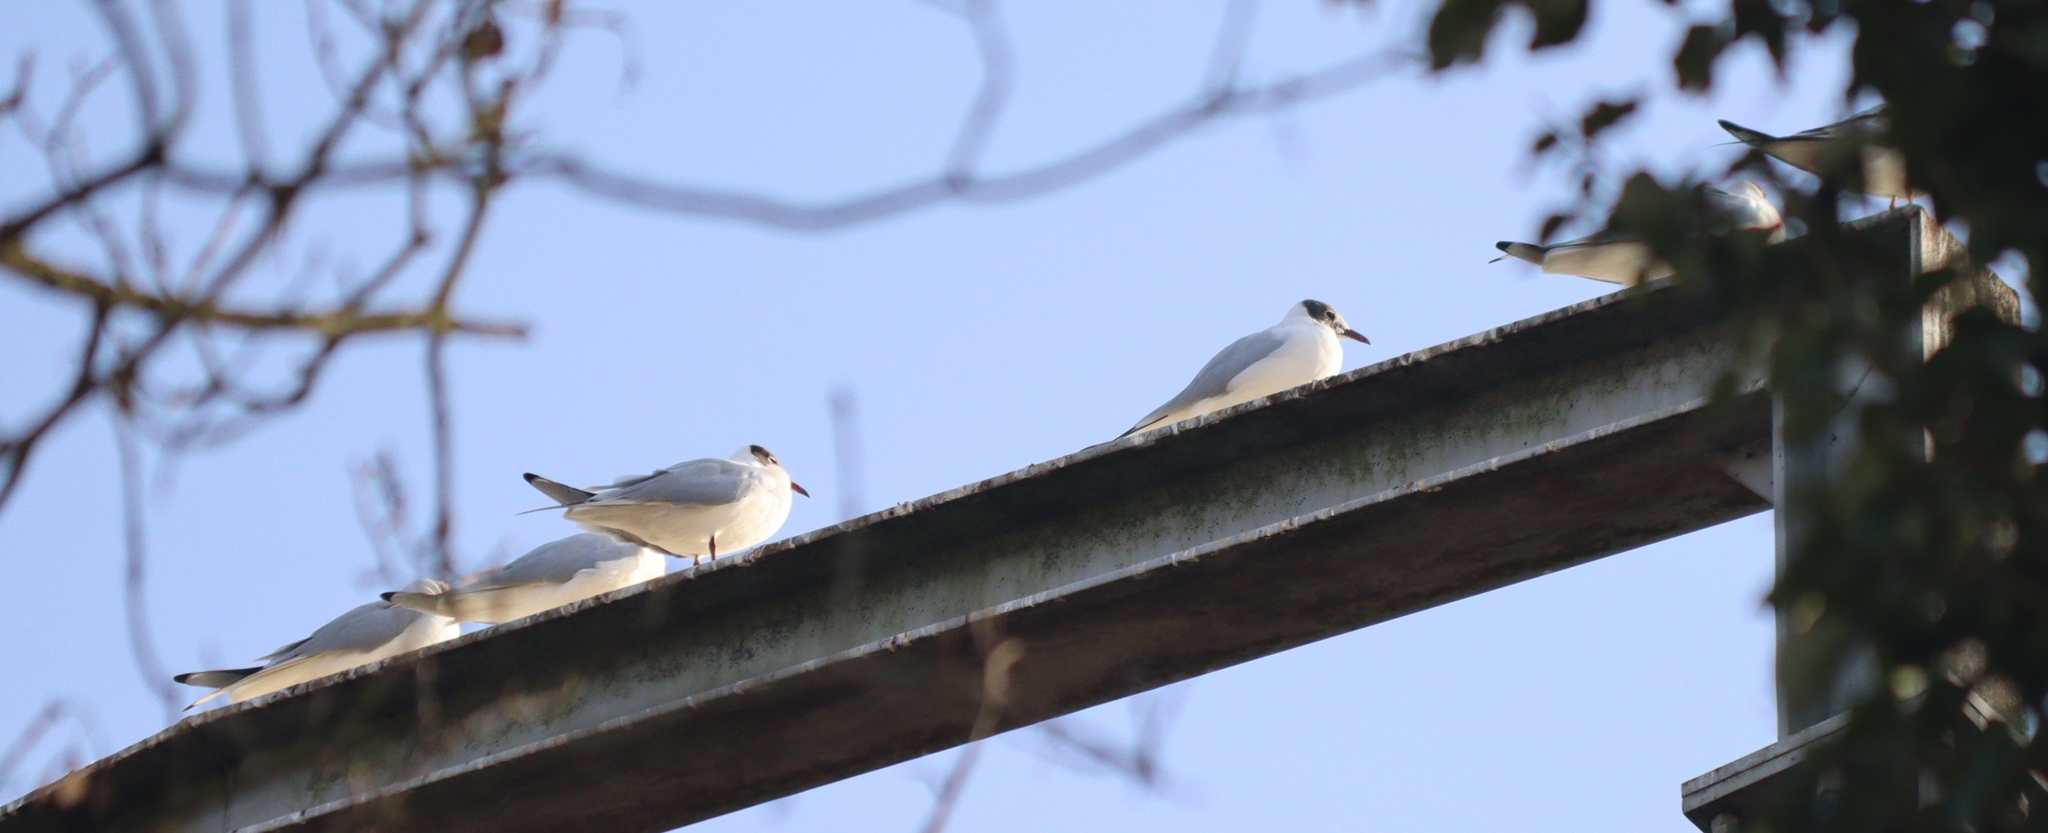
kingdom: Animalia
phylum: Chordata
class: Aves
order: Charadriiformes
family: Laridae
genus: Chroicocephalus
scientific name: Chroicocephalus ridibundus
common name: Black-headed gull
